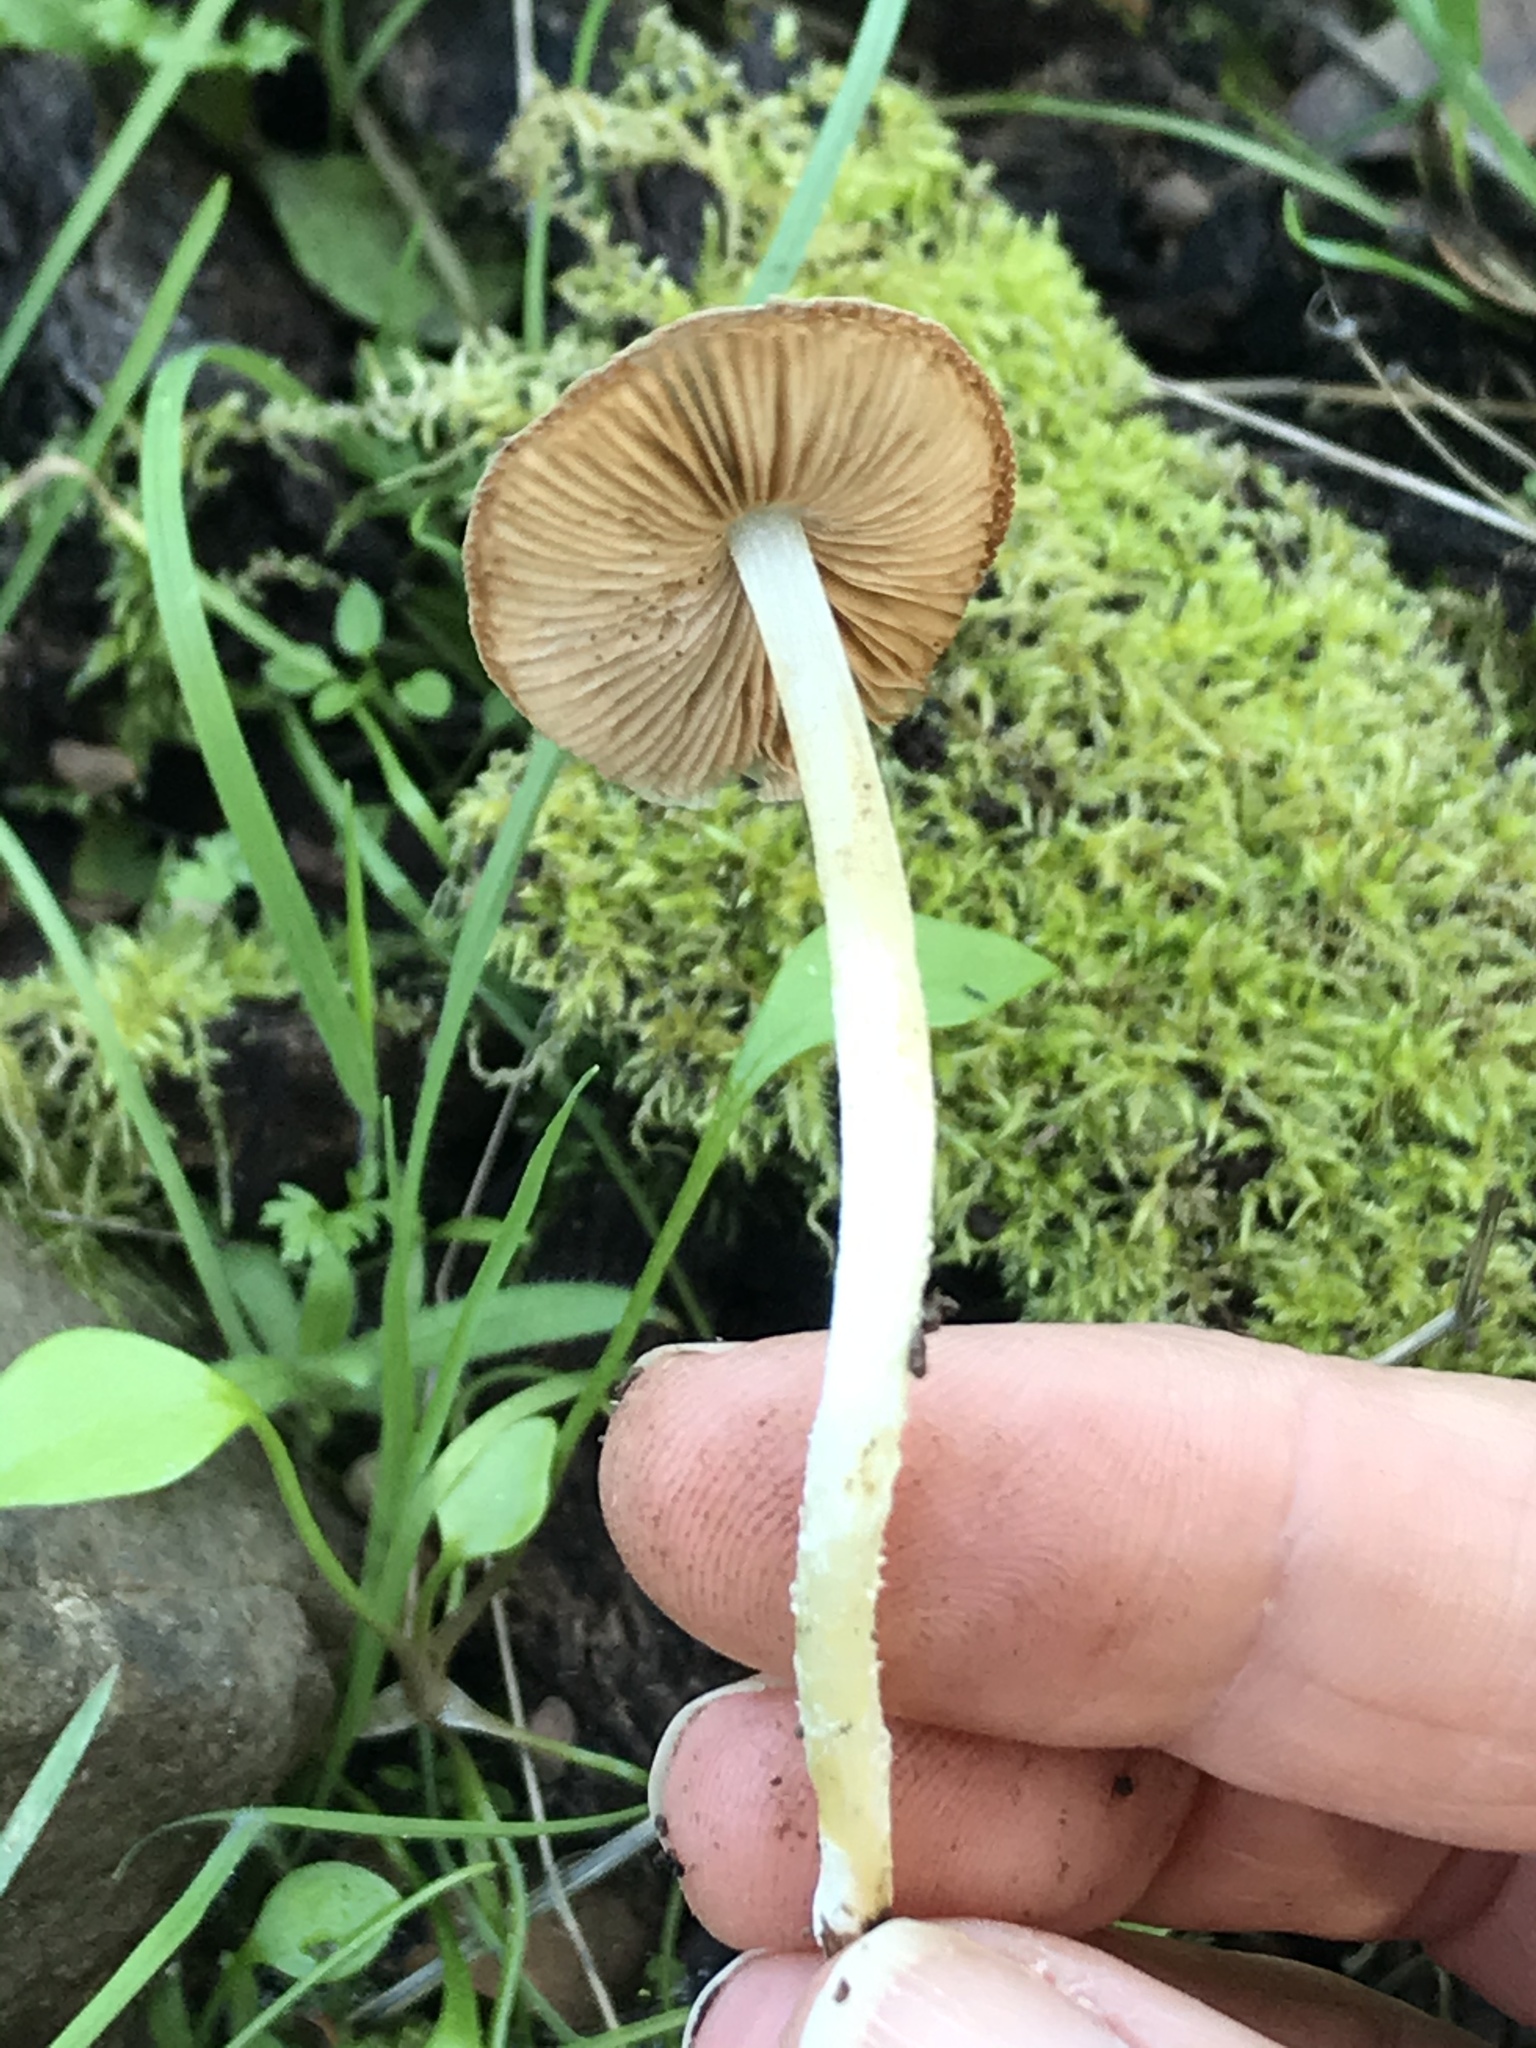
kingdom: Fungi
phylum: Basidiomycota
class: Agaricomycetes
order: Agaricales
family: Bolbitiaceae
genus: Bolbitius
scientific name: Bolbitius reticulatus
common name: Netted fieldcap
